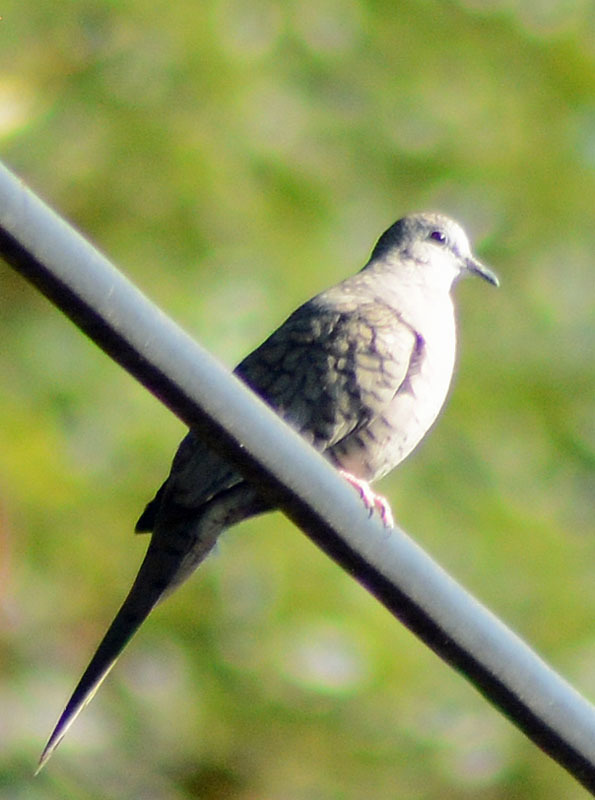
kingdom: Animalia
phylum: Chordata
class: Aves
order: Columbiformes
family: Columbidae
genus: Columbina
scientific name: Columbina inca
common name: Inca dove
